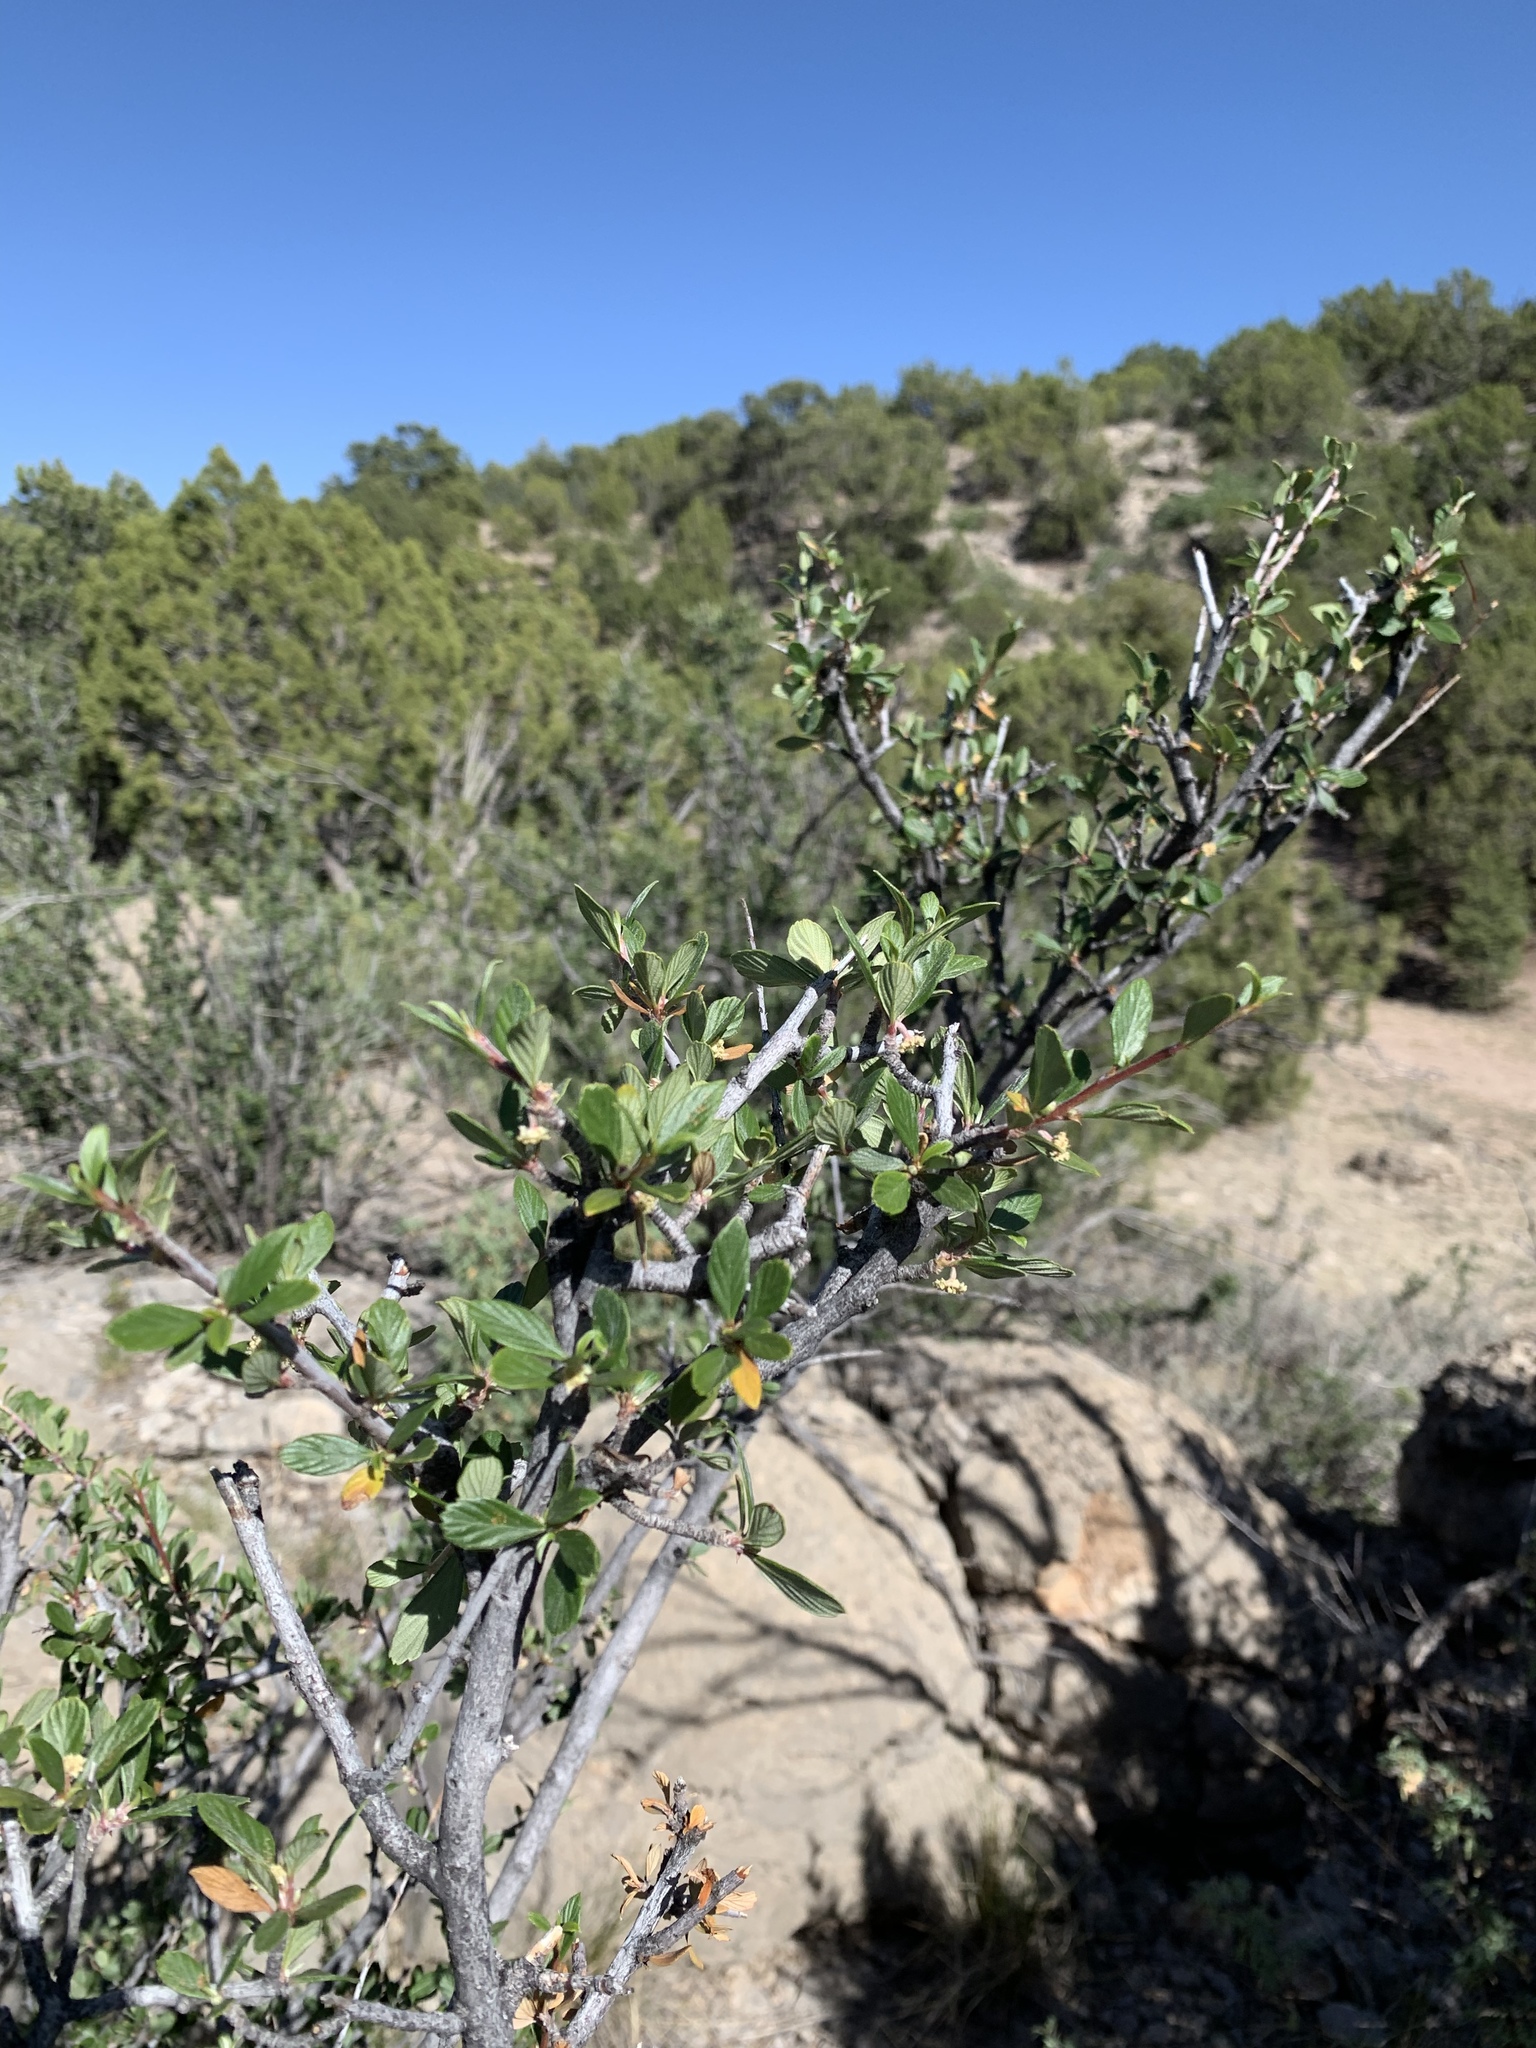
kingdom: Plantae
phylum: Tracheophyta
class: Magnoliopsida
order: Rosales
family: Rosaceae
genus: Cercocarpus
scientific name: Cercocarpus breviflorus
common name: Wright's mountain-mahogany
